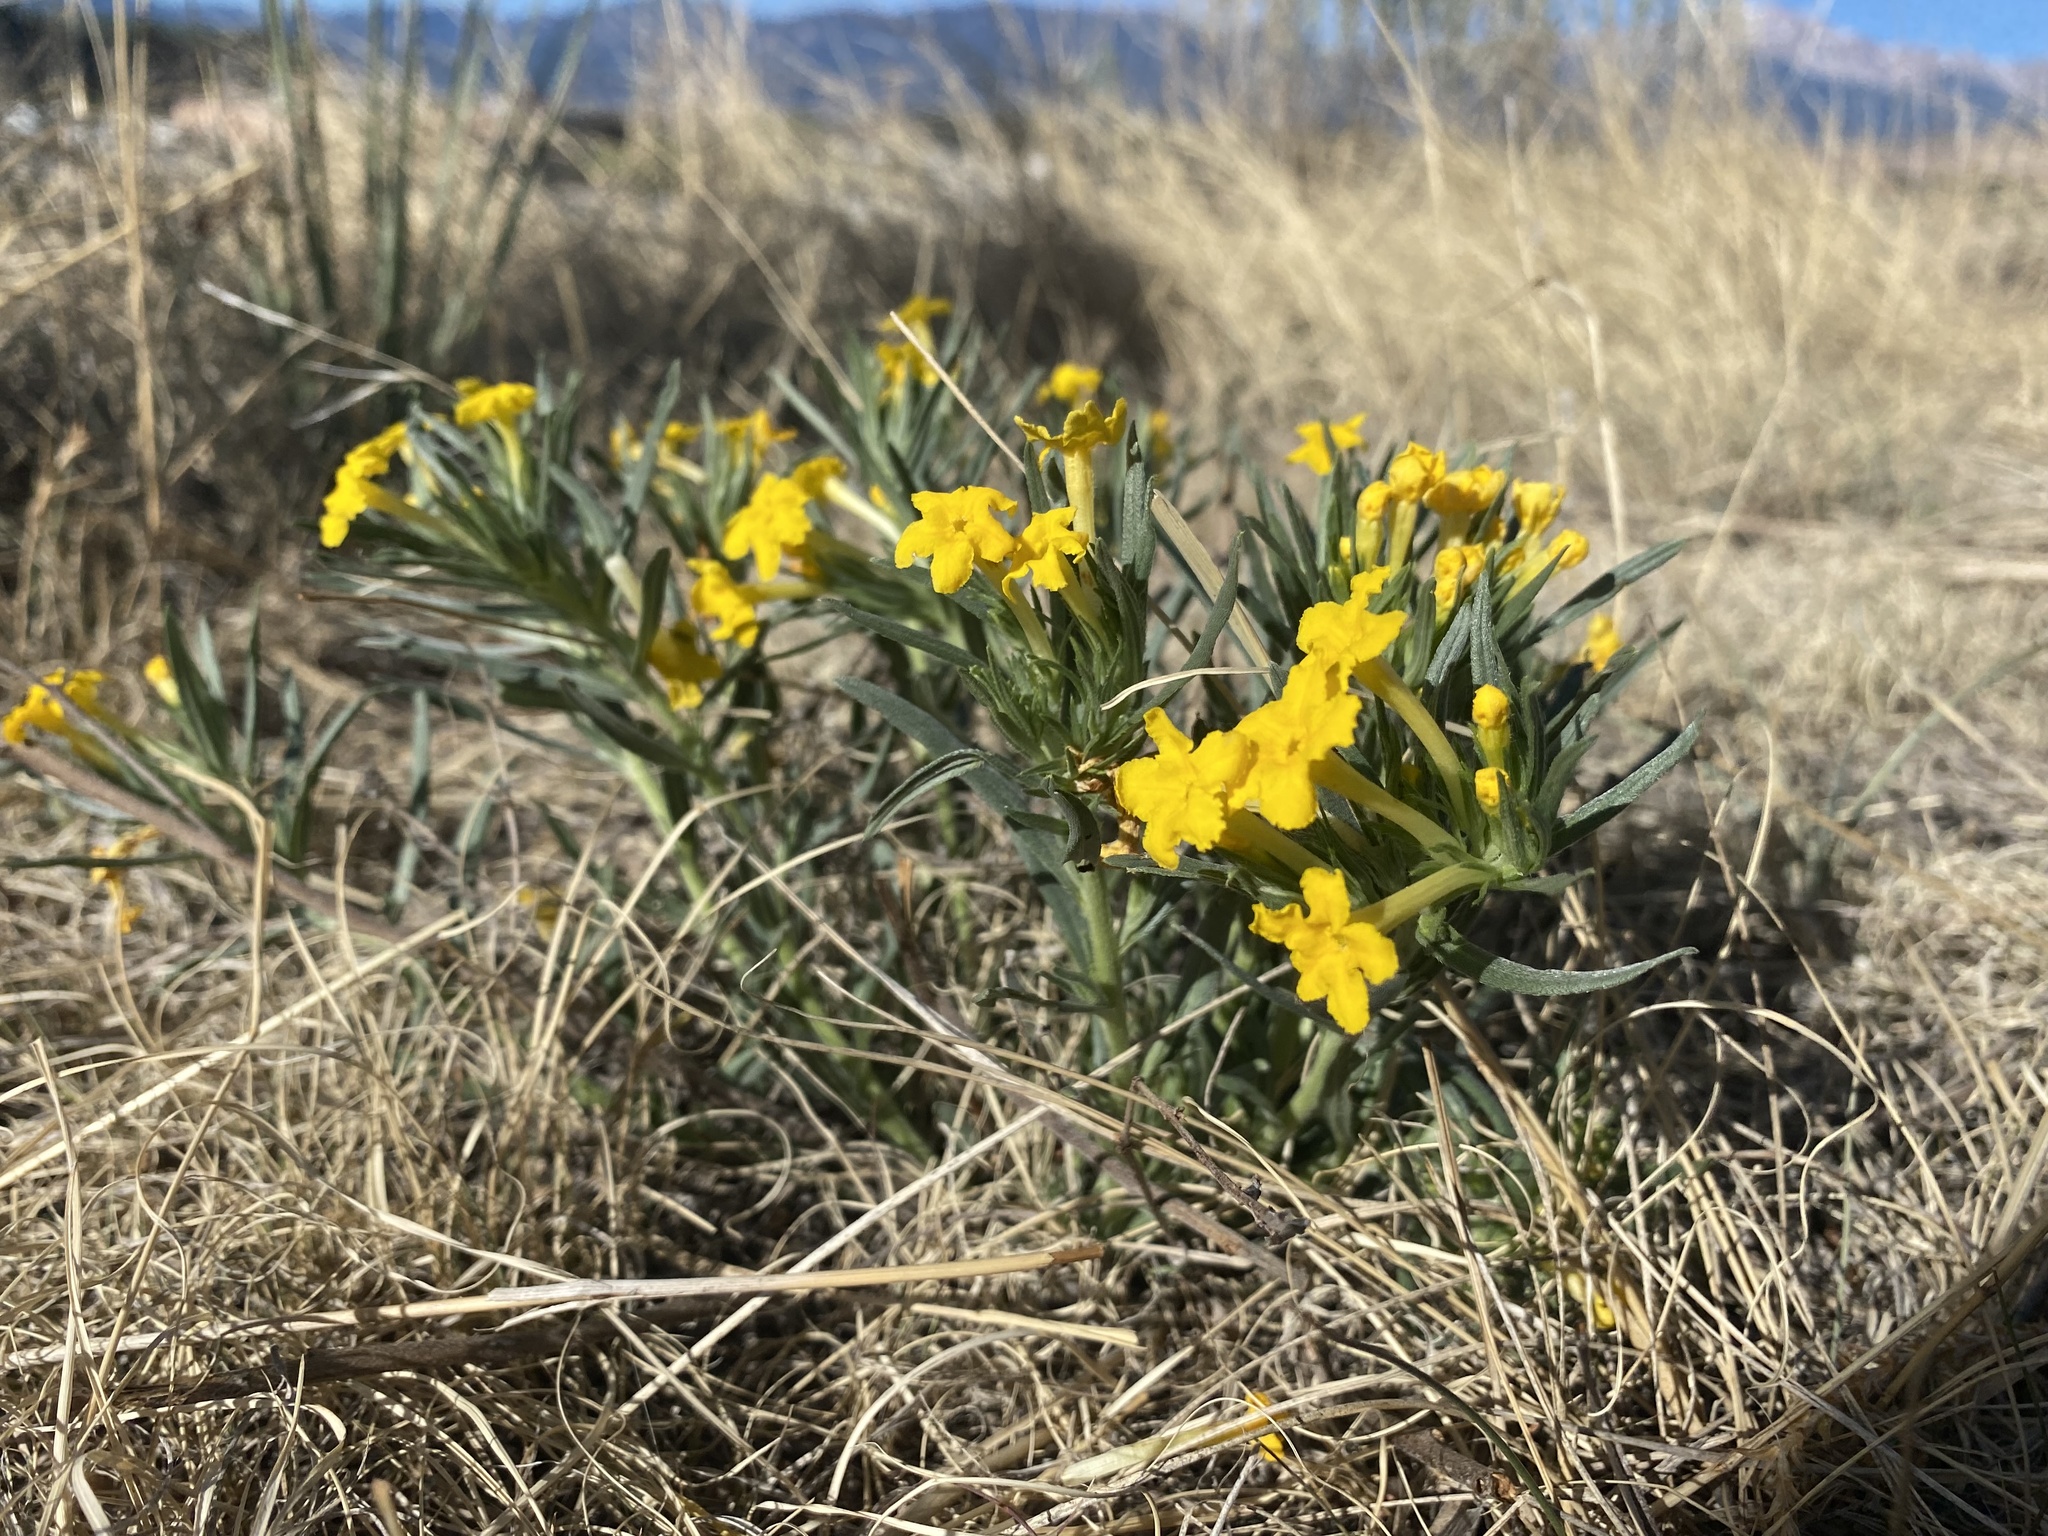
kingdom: Plantae
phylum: Tracheophyta
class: Magnoliopsida
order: Boraginales
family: Boraginaceae
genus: Lithospermum
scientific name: Lithospermum incisum
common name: Fringed gromwell
